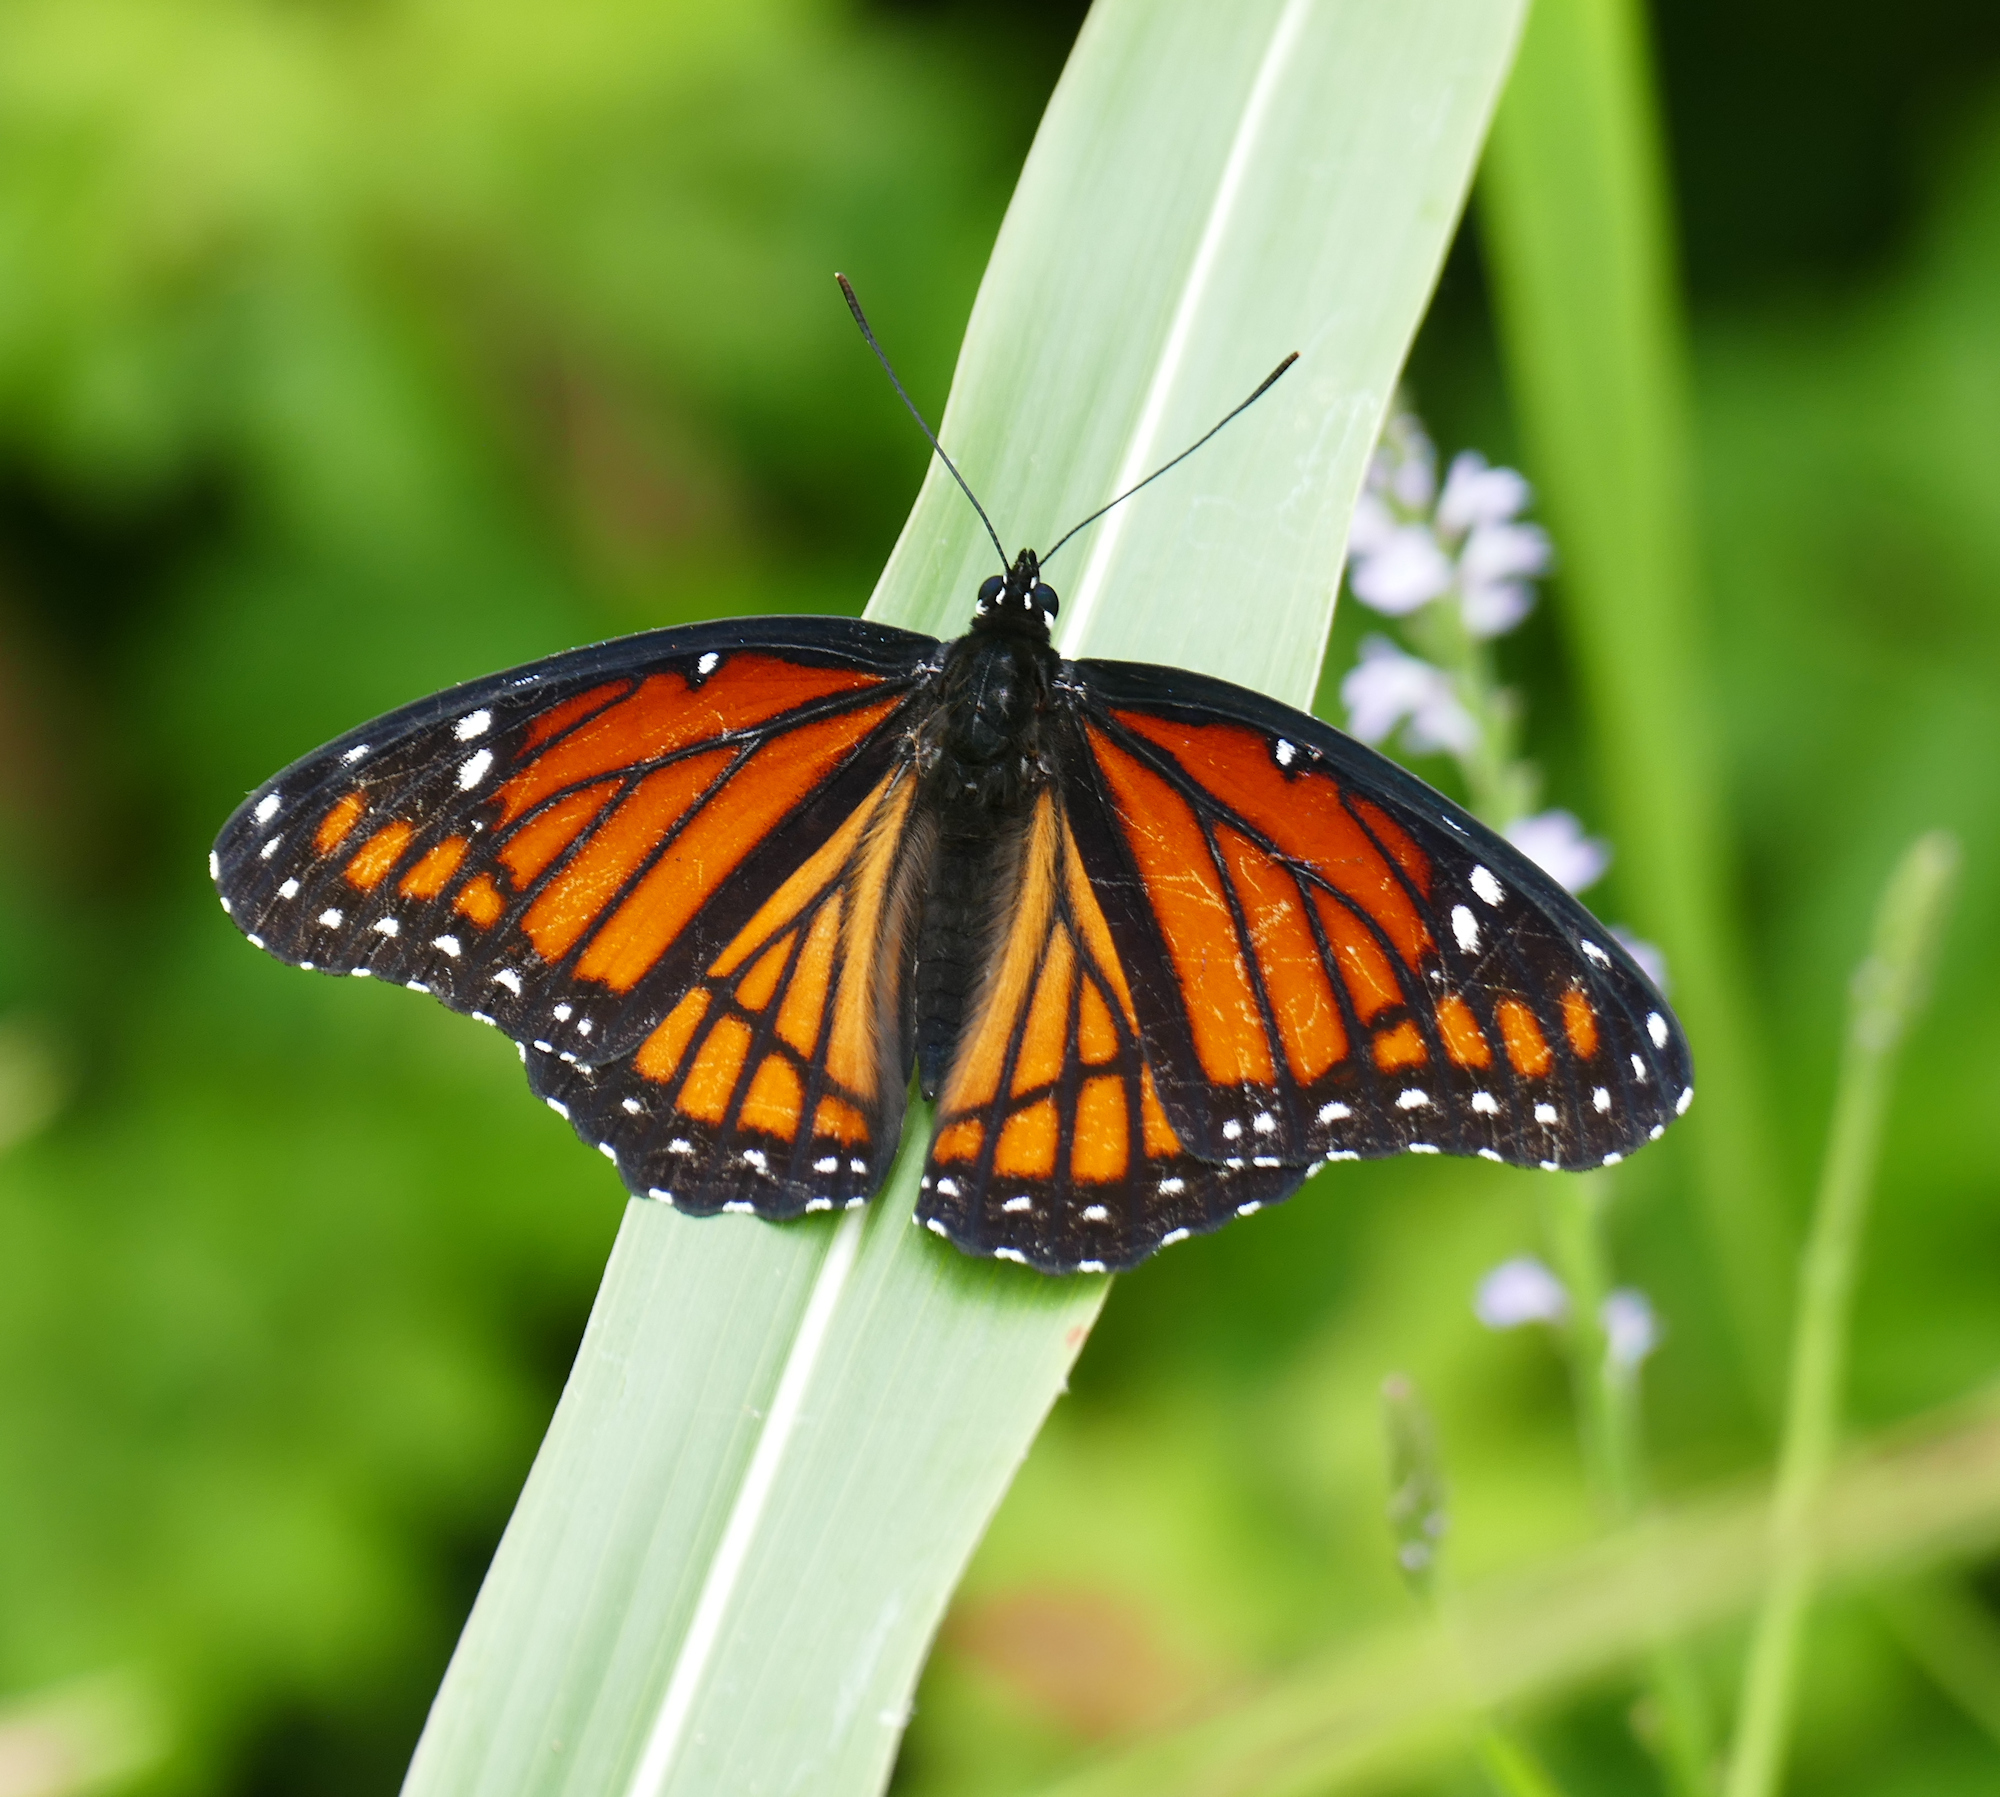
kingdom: Animalia
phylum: Arthropoda
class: Insecta
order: Lepidoptera
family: Nymphalidae
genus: Limenitis
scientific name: Limenitis archippus
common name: Viceroy
